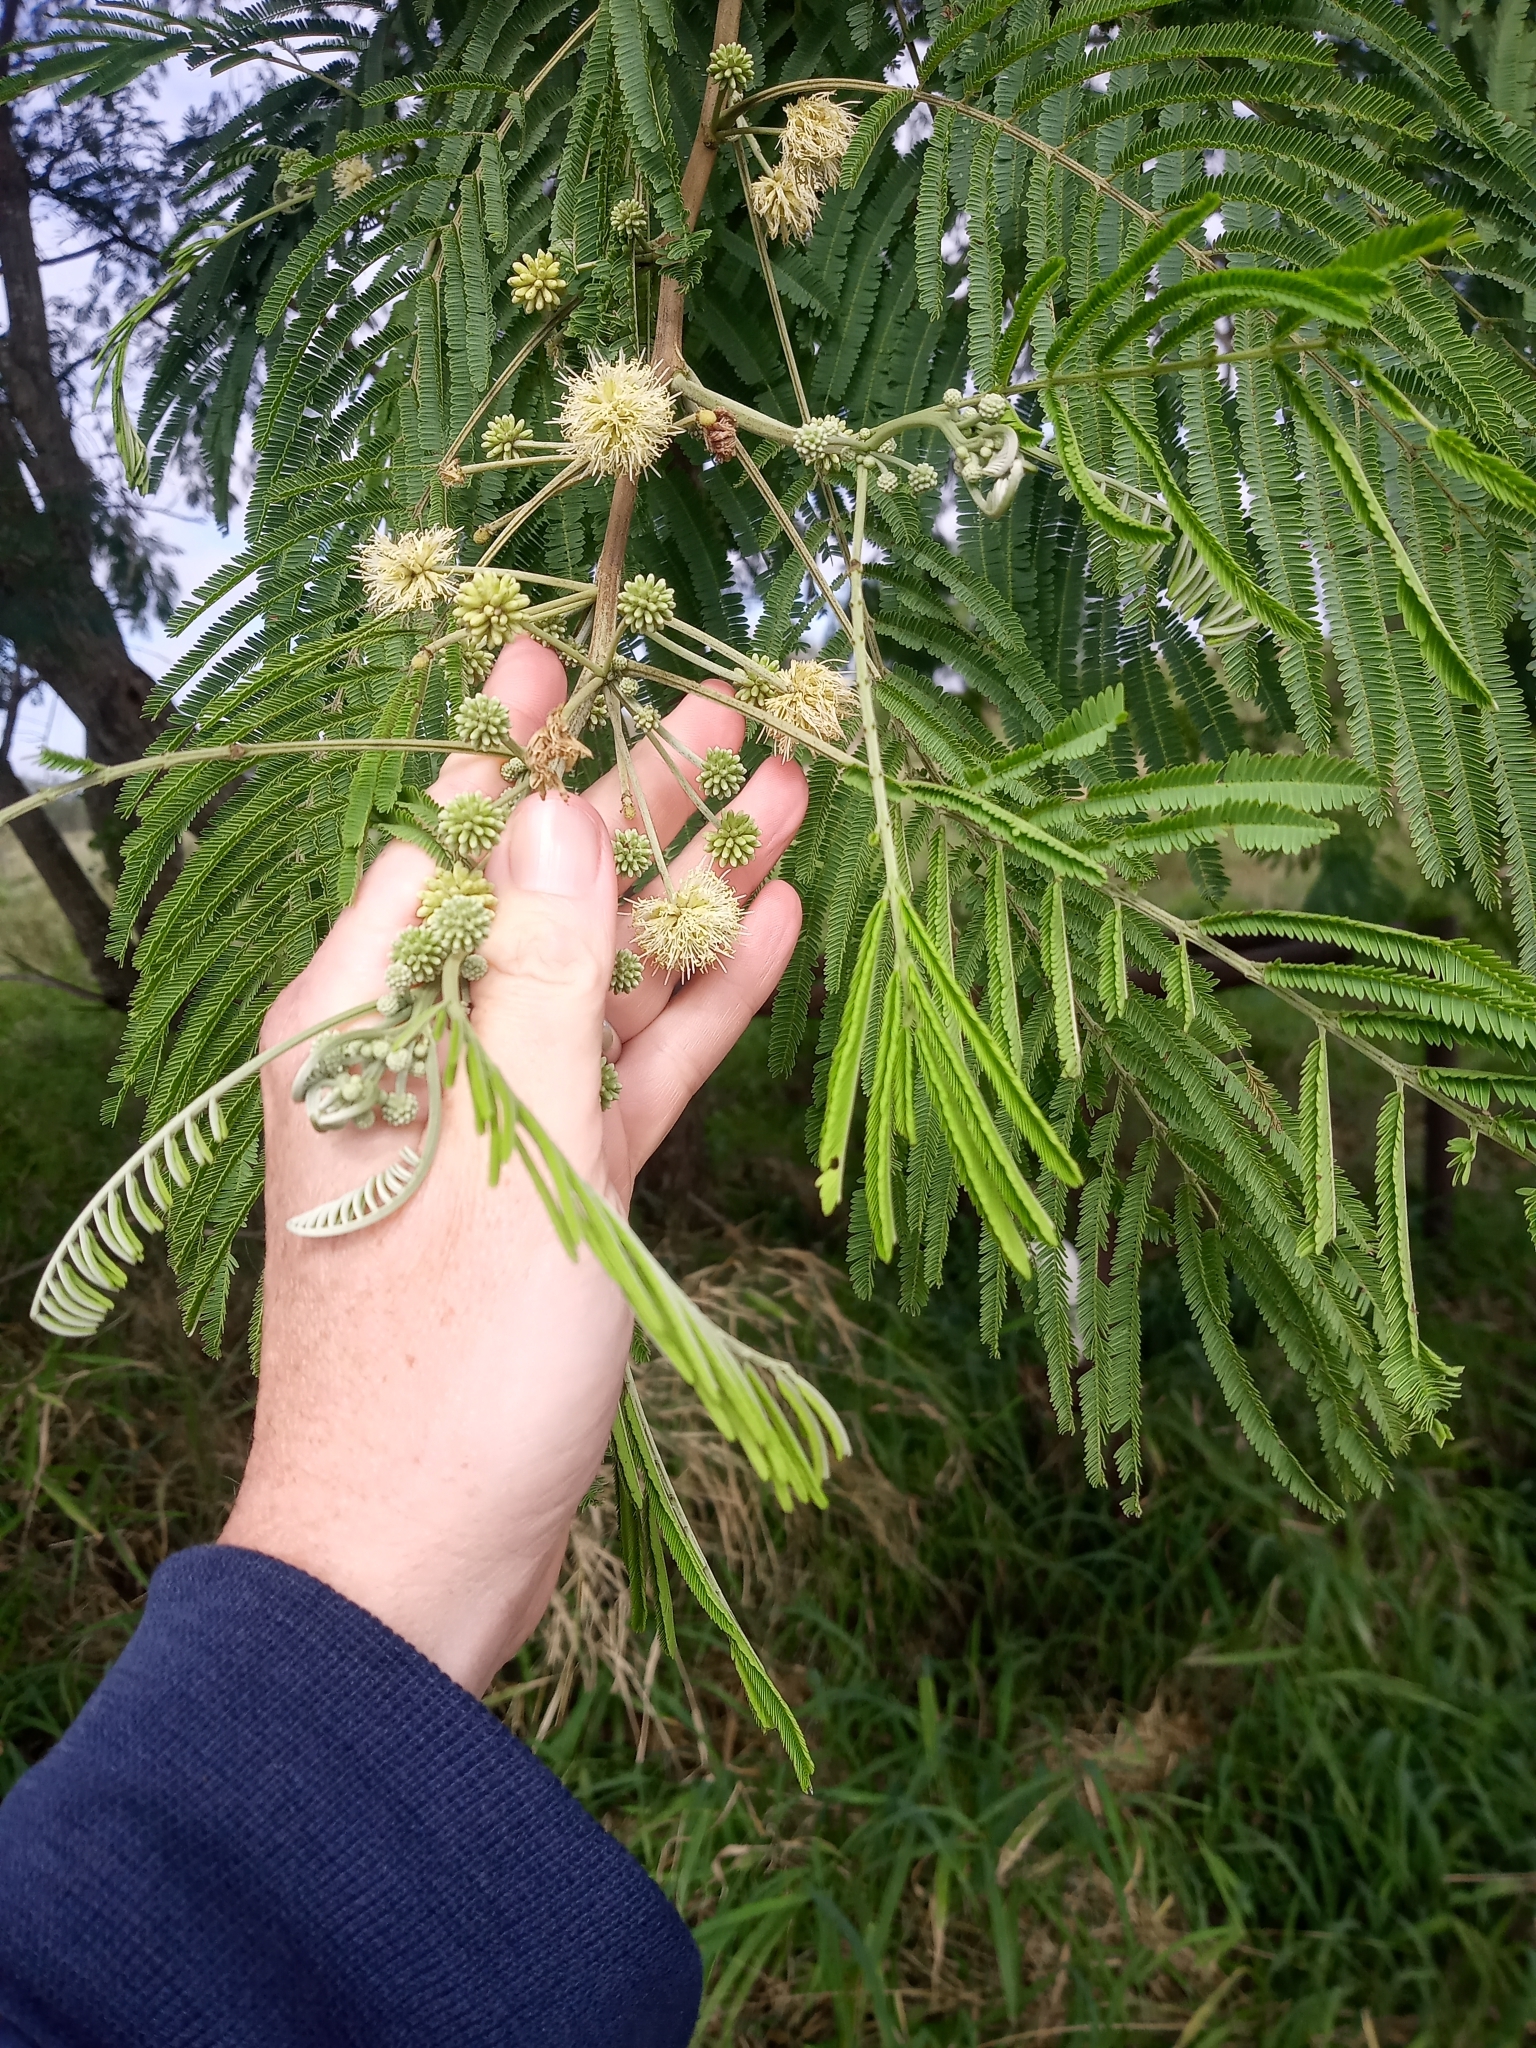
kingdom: Plantae
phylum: Tracheophyta
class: Magnoliopsida
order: Fabales
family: Fabaceae
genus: Leucaena
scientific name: Leucaena pulverulenta
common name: Great leadtree
